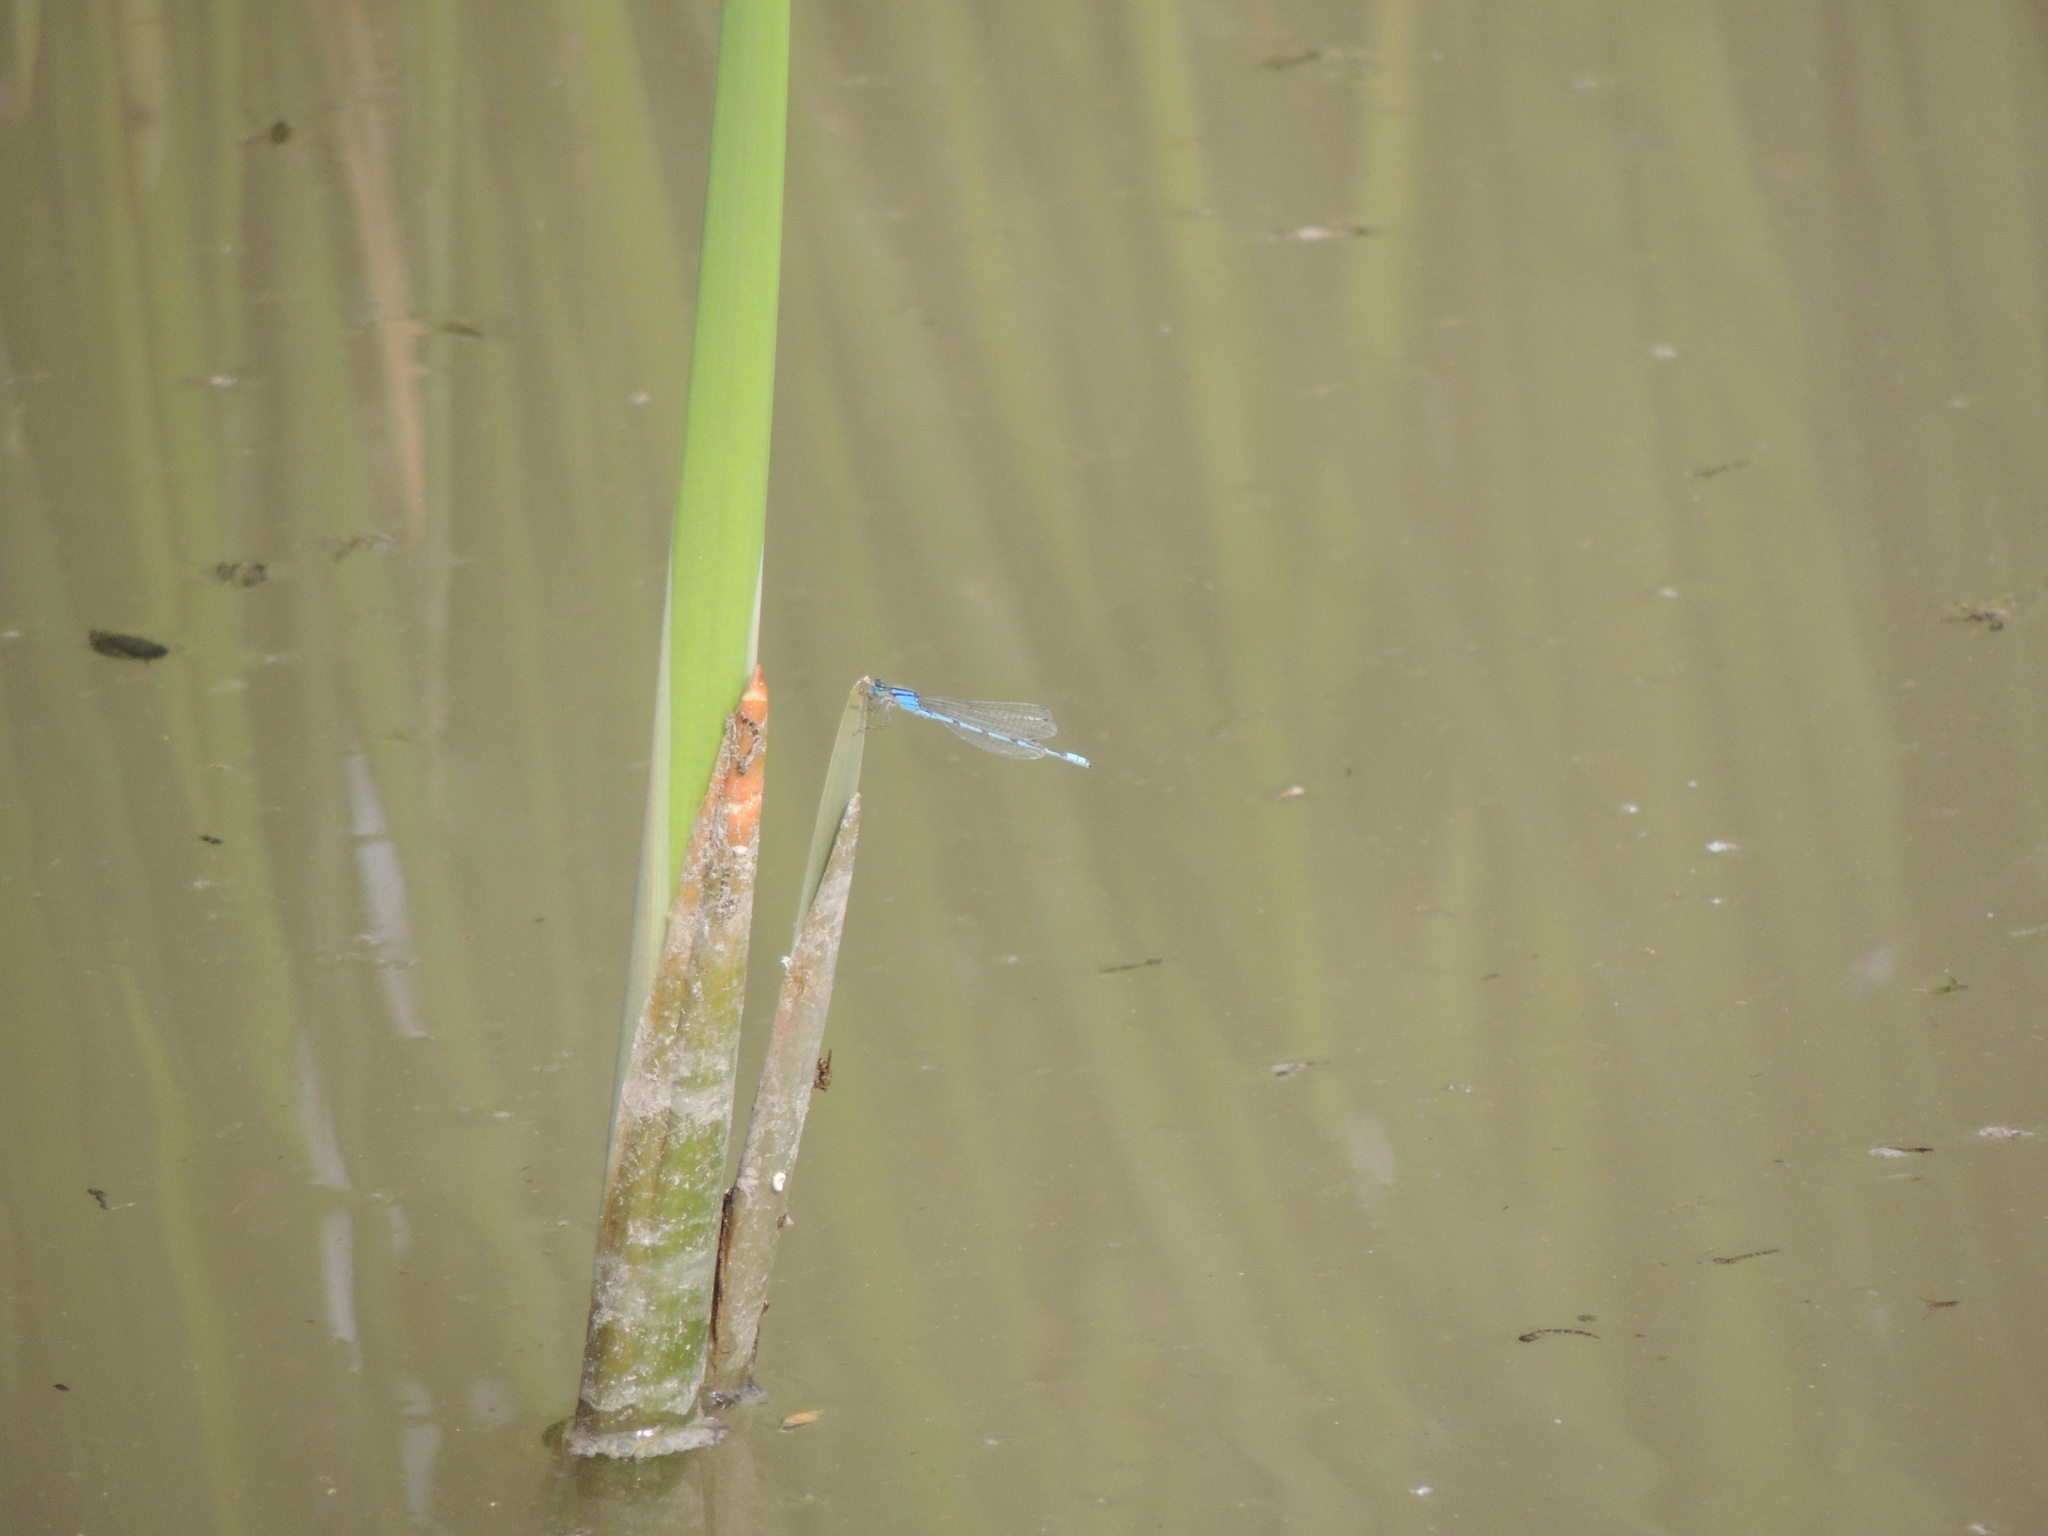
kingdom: Animalia
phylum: Arthropoda
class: Insecta
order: Odonata
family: Coenagrionidae
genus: Enallagma
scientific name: Enallagma
